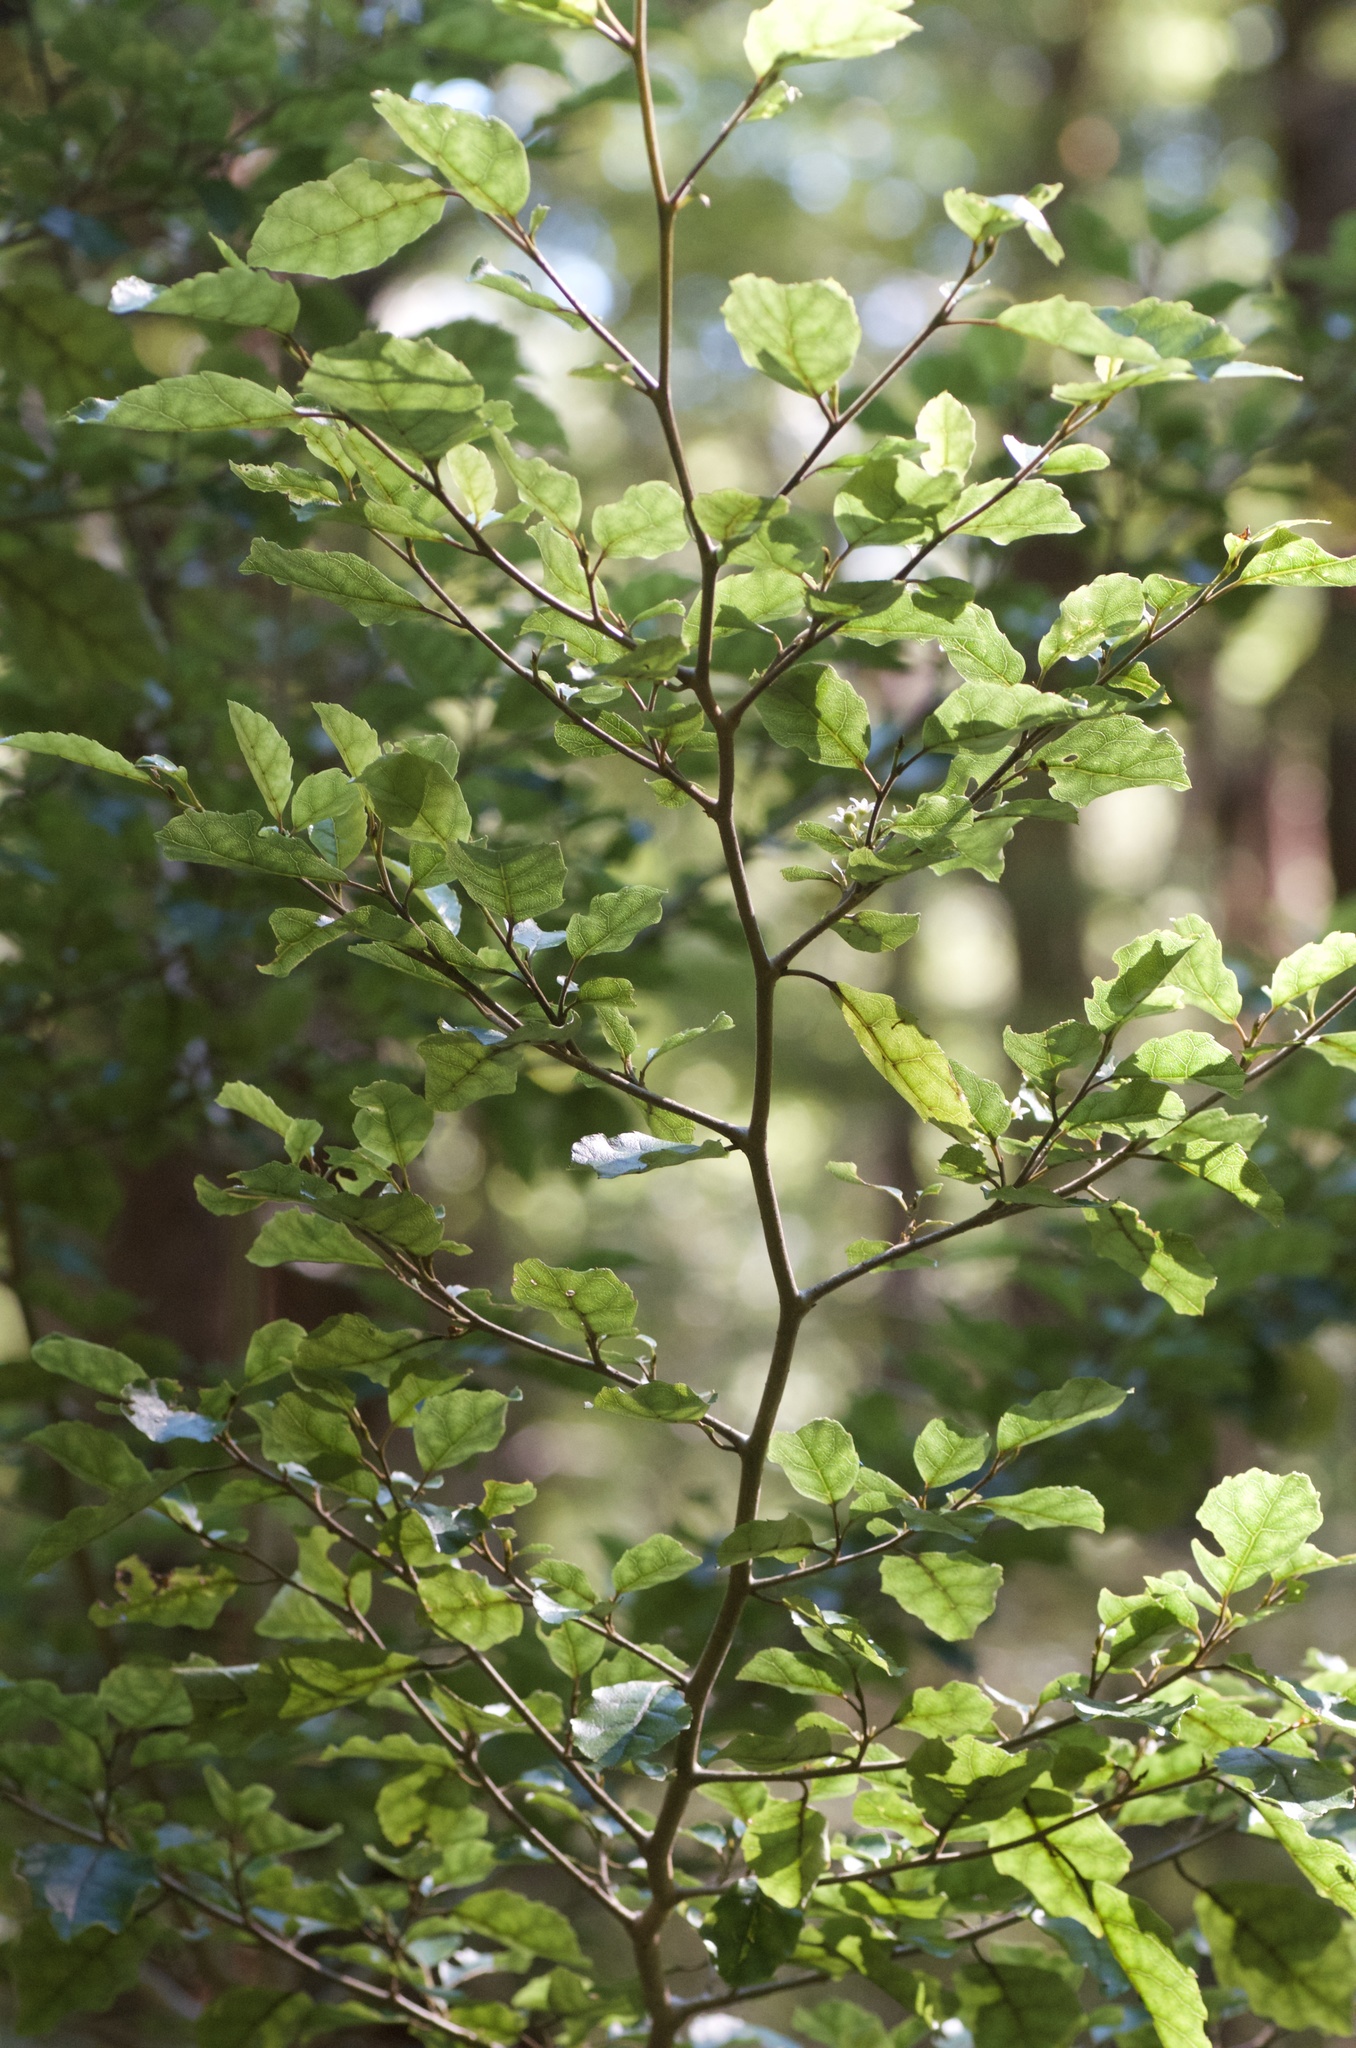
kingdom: Plantae
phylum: Tracheophyta
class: Magnoliopsida
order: Asterales
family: Rousseaceae
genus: Carpodetus
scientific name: Carpodetus serratus
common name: White mapau
